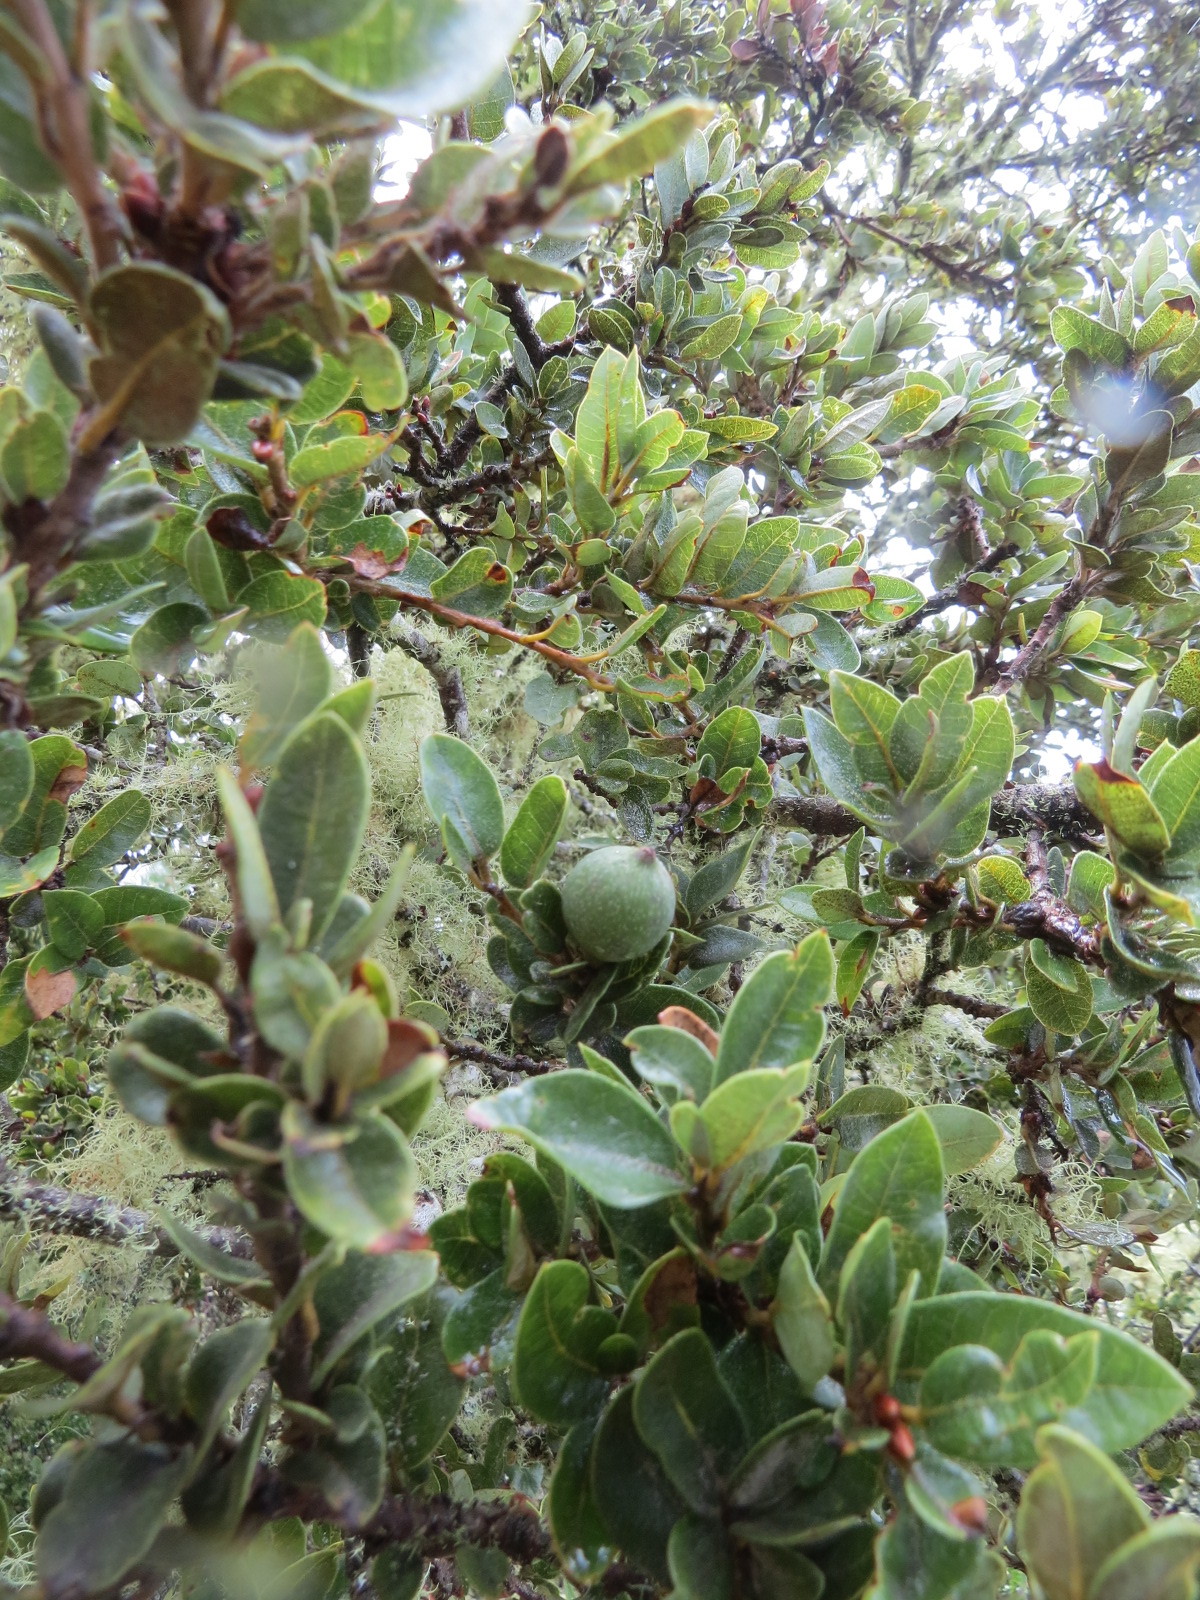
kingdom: Plantae
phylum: Tracheophyta
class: Magnoliopsida
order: Fagales
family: Fagaceae
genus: Quercus
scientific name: Quercus chrysolepis
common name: Canyon live oak
